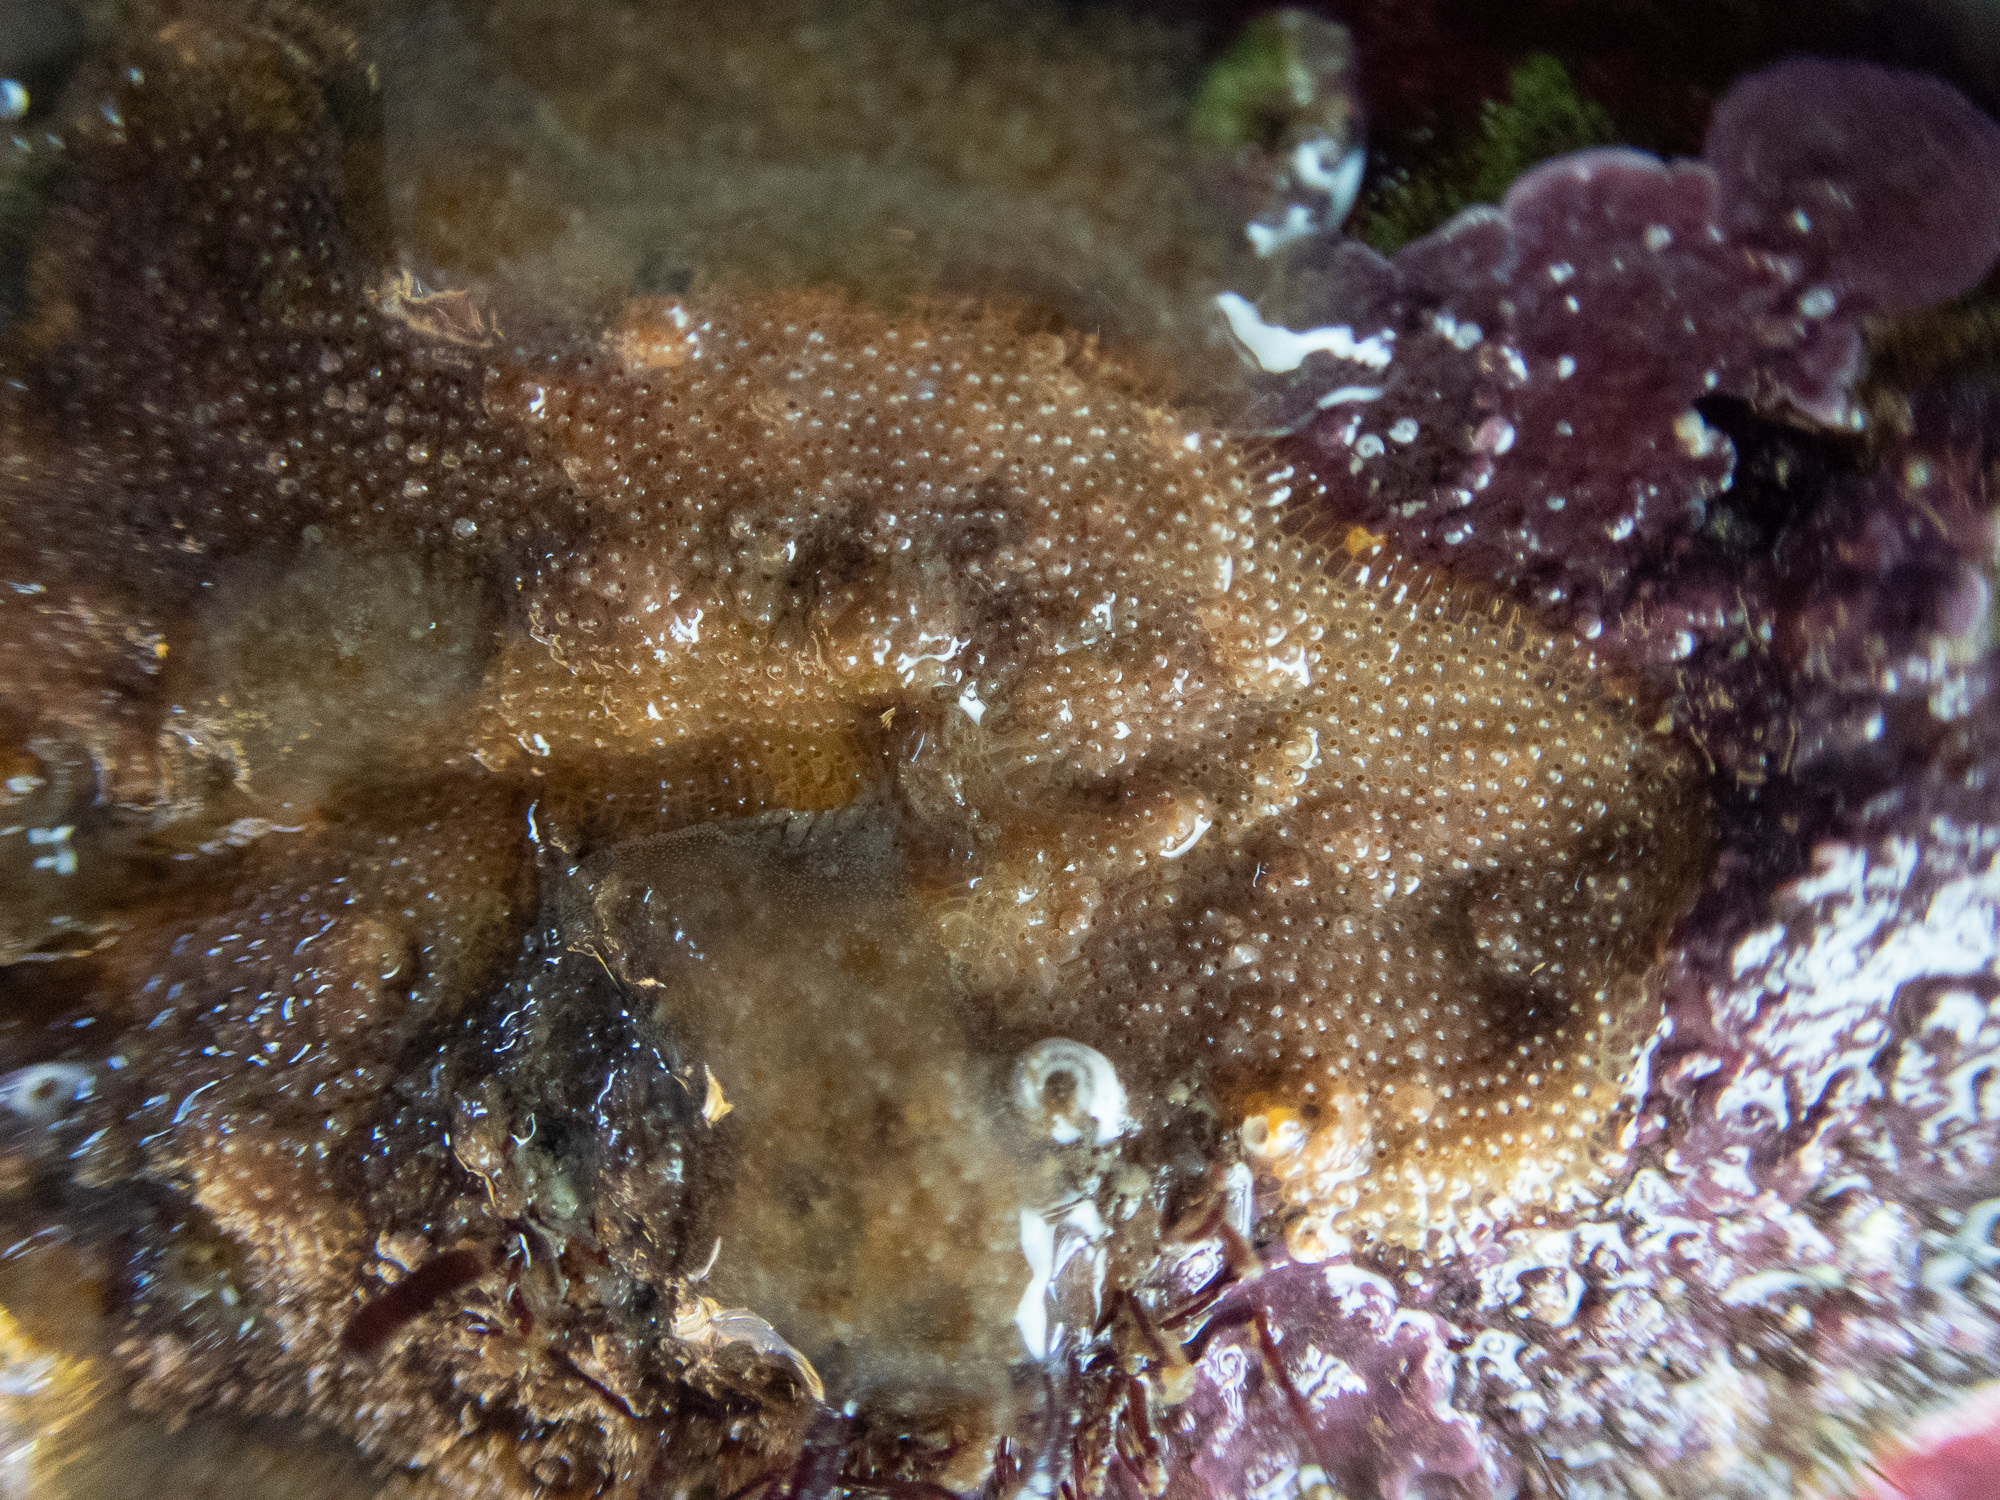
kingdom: Animalia
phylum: Bryozoa
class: Gymnolaemata
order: Cheilostomatida
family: Umbonulidae
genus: Oshurkovia
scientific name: Oshurkovia littoralis
